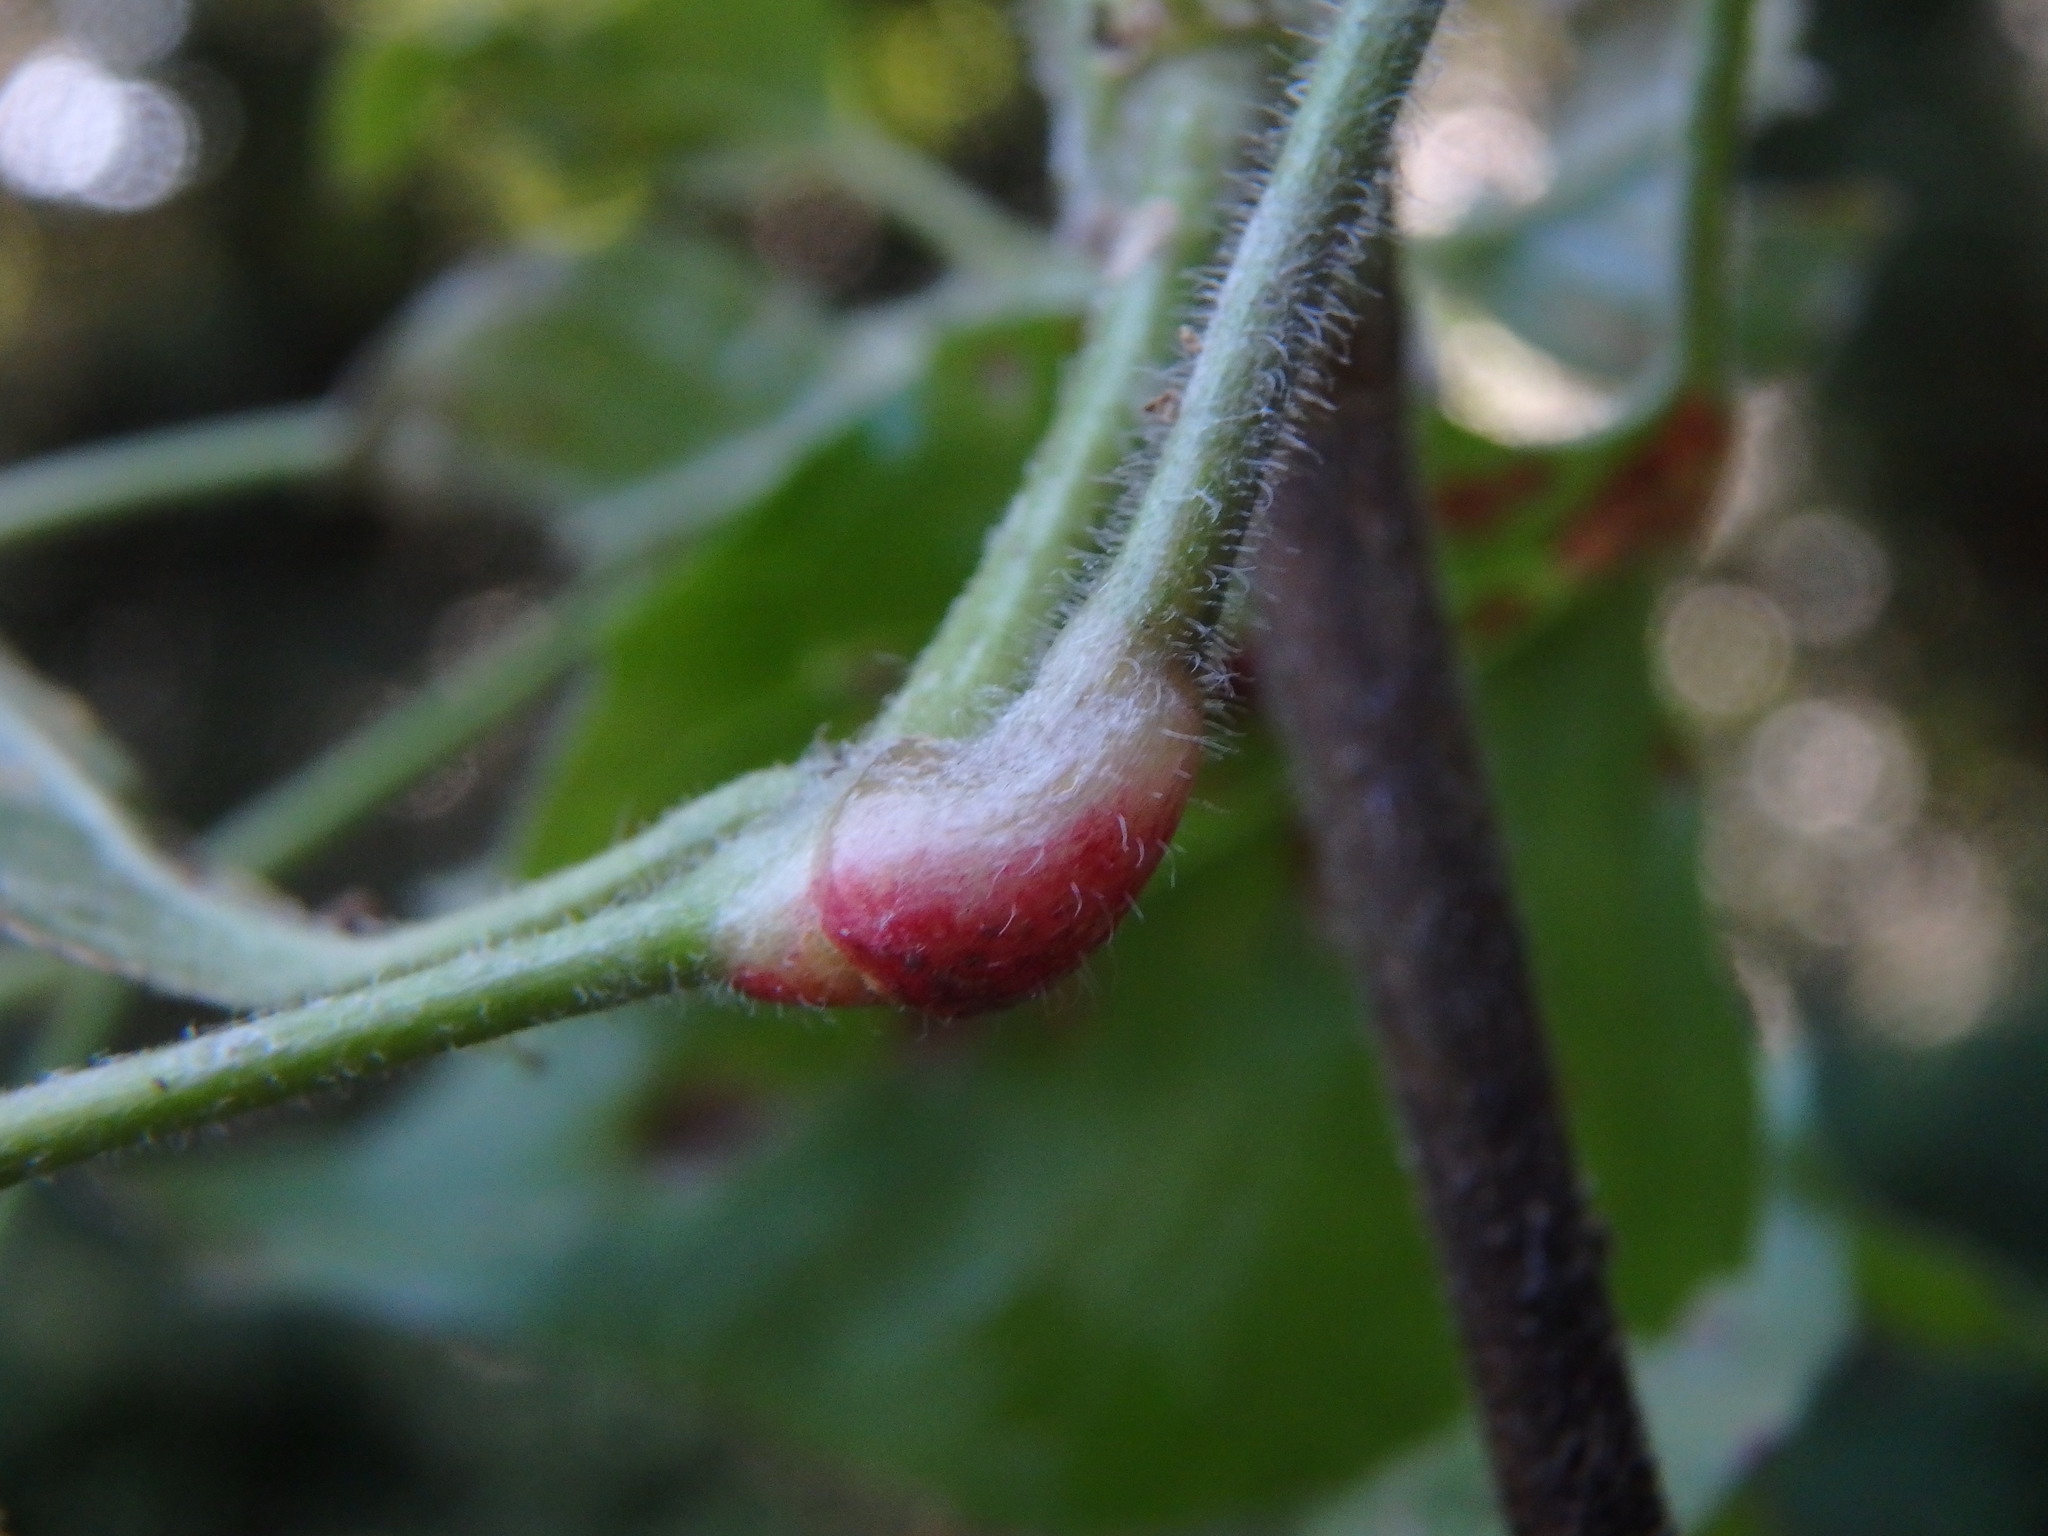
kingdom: Fungi
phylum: Basidiomycota
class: Pucciniomycetes
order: Pucciniales
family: Pucciniaceae
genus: Puccinia
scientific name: Puccinia circaeae
